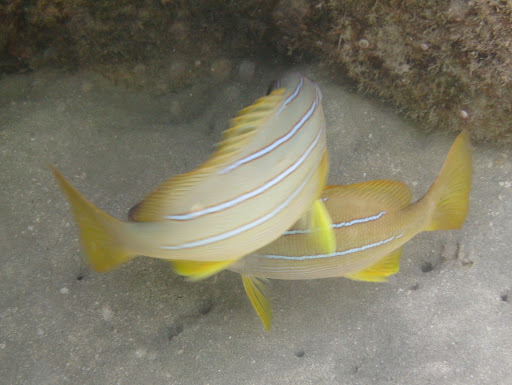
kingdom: Animalia
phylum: Chordata
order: Perciformes
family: Lutjanidae
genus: Lutjanus
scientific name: Lutjanus kasmira
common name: Common bluestripe snapper
